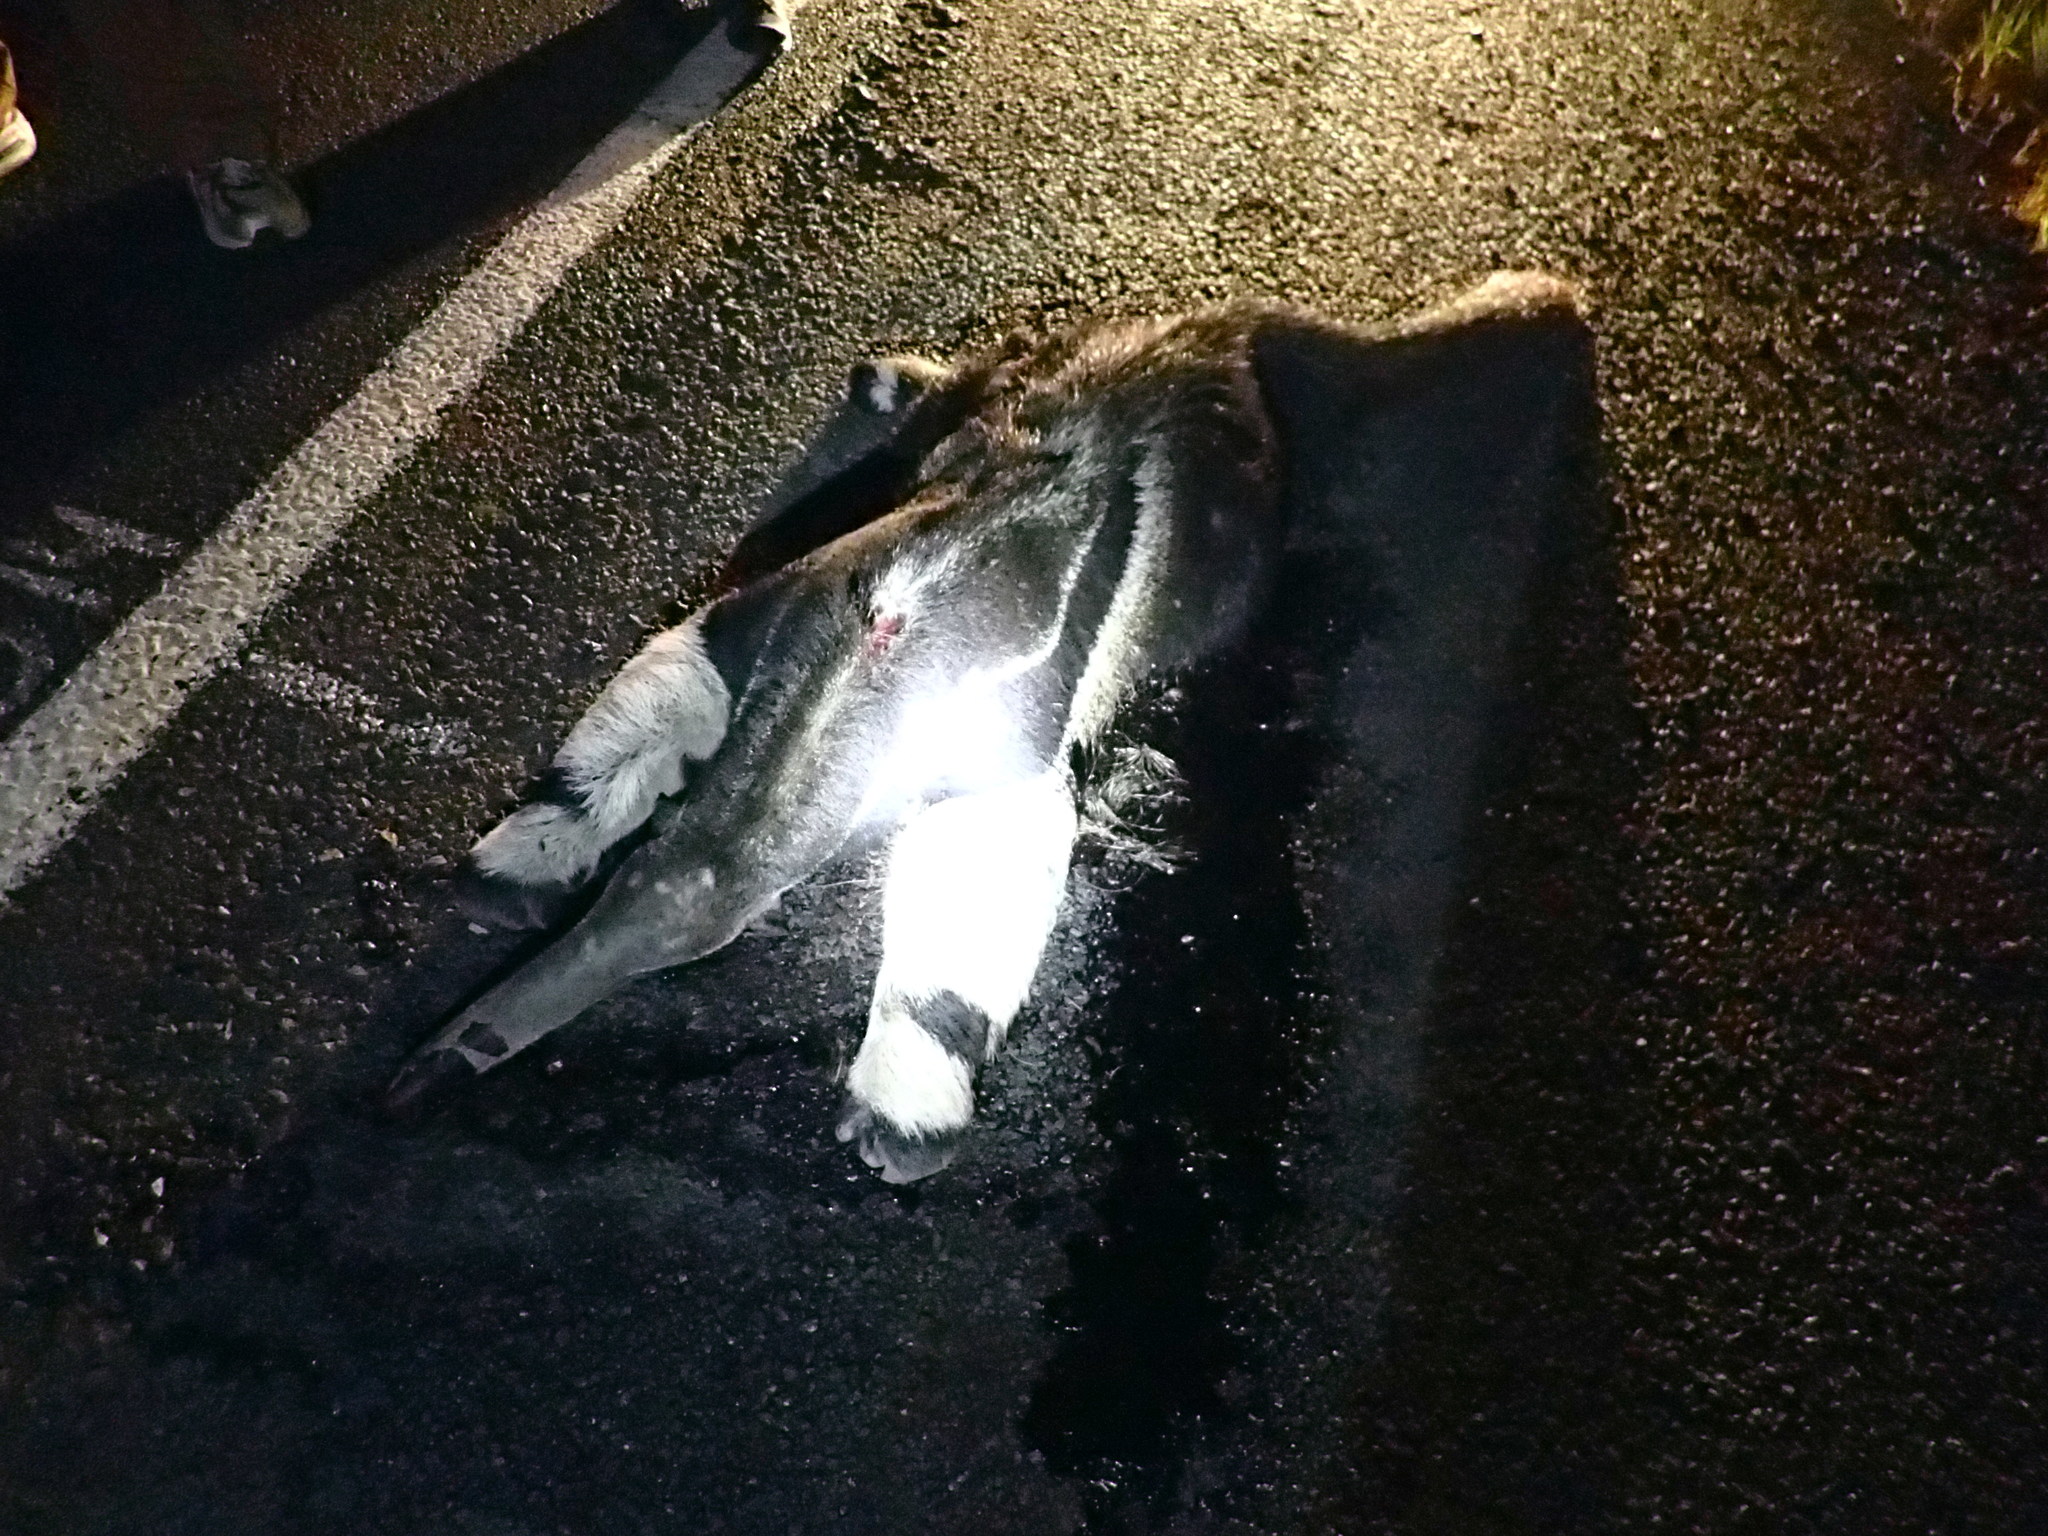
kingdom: Animalia
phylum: Chordata
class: Mammalia
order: Pilosa
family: Myrmecophagidae
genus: Myrmecophaga
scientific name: Myrmecophaga tridactyla
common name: Giant anteater
